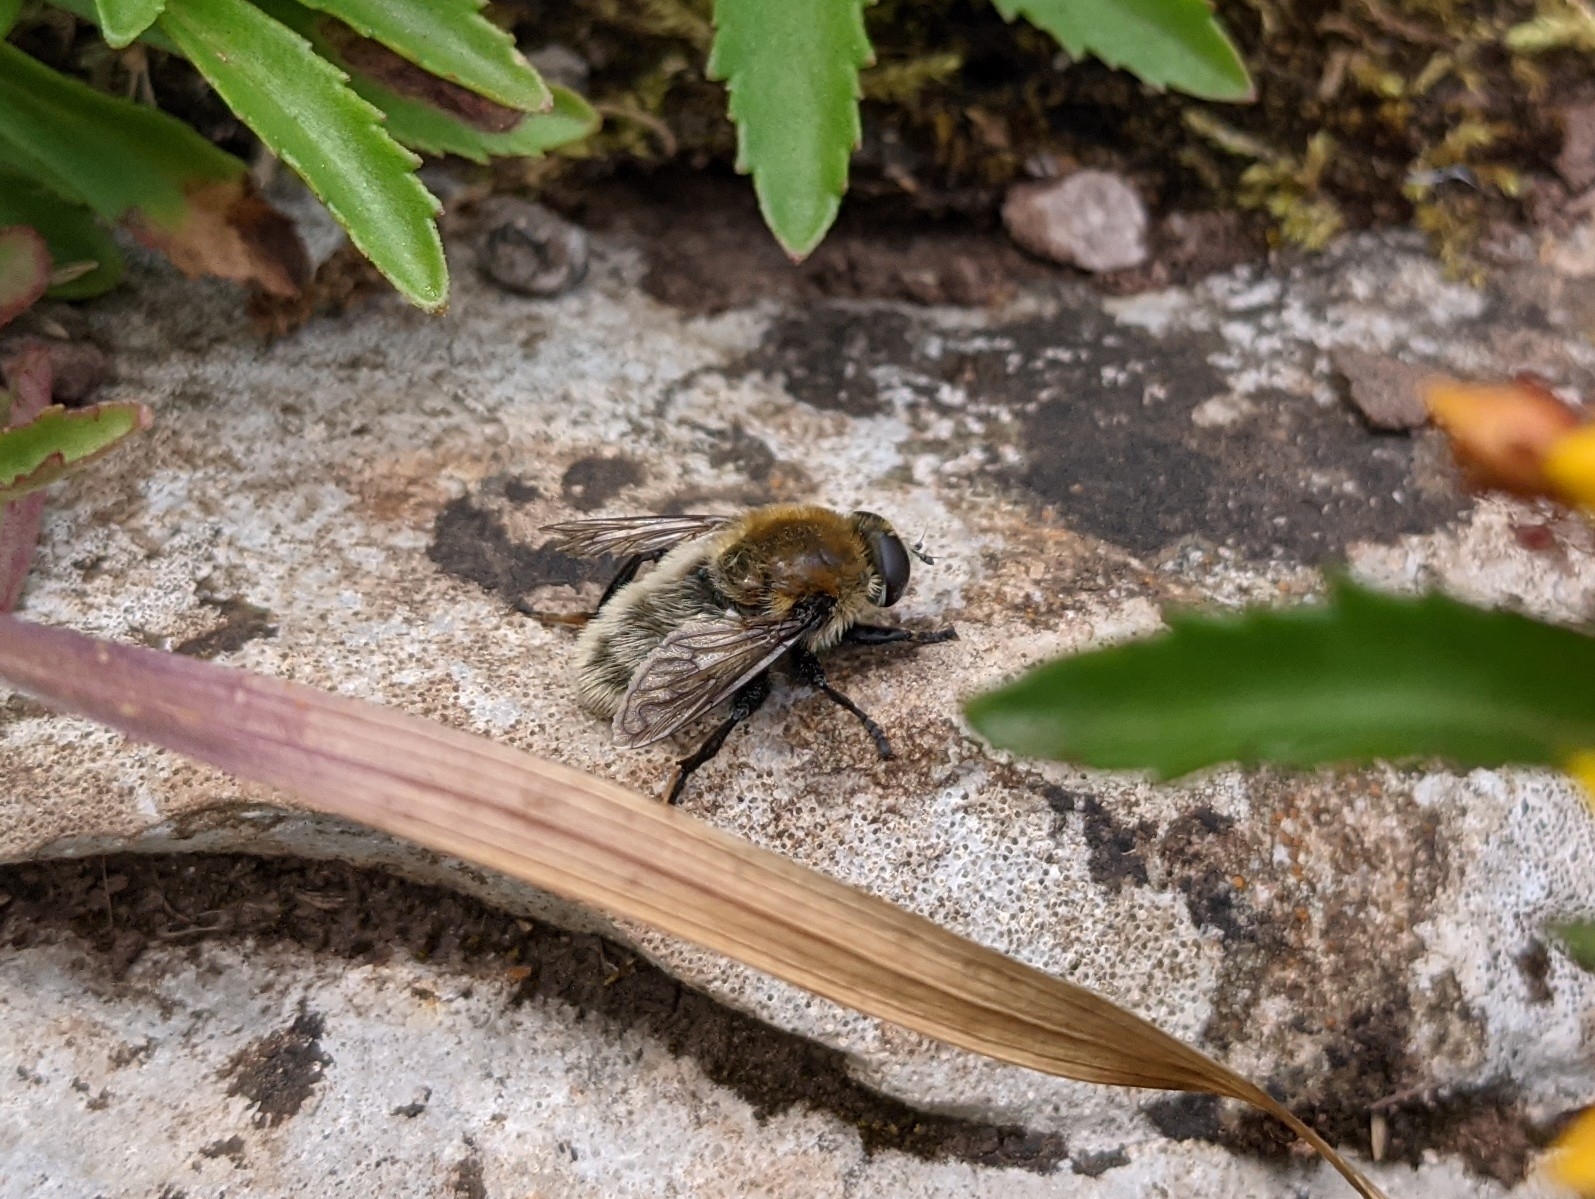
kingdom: Animalia
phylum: Arthropoda
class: Insecta
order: Diptera
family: Syrphidae
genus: Merodon
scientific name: Merodon equestris
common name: Greater bulb-fly
